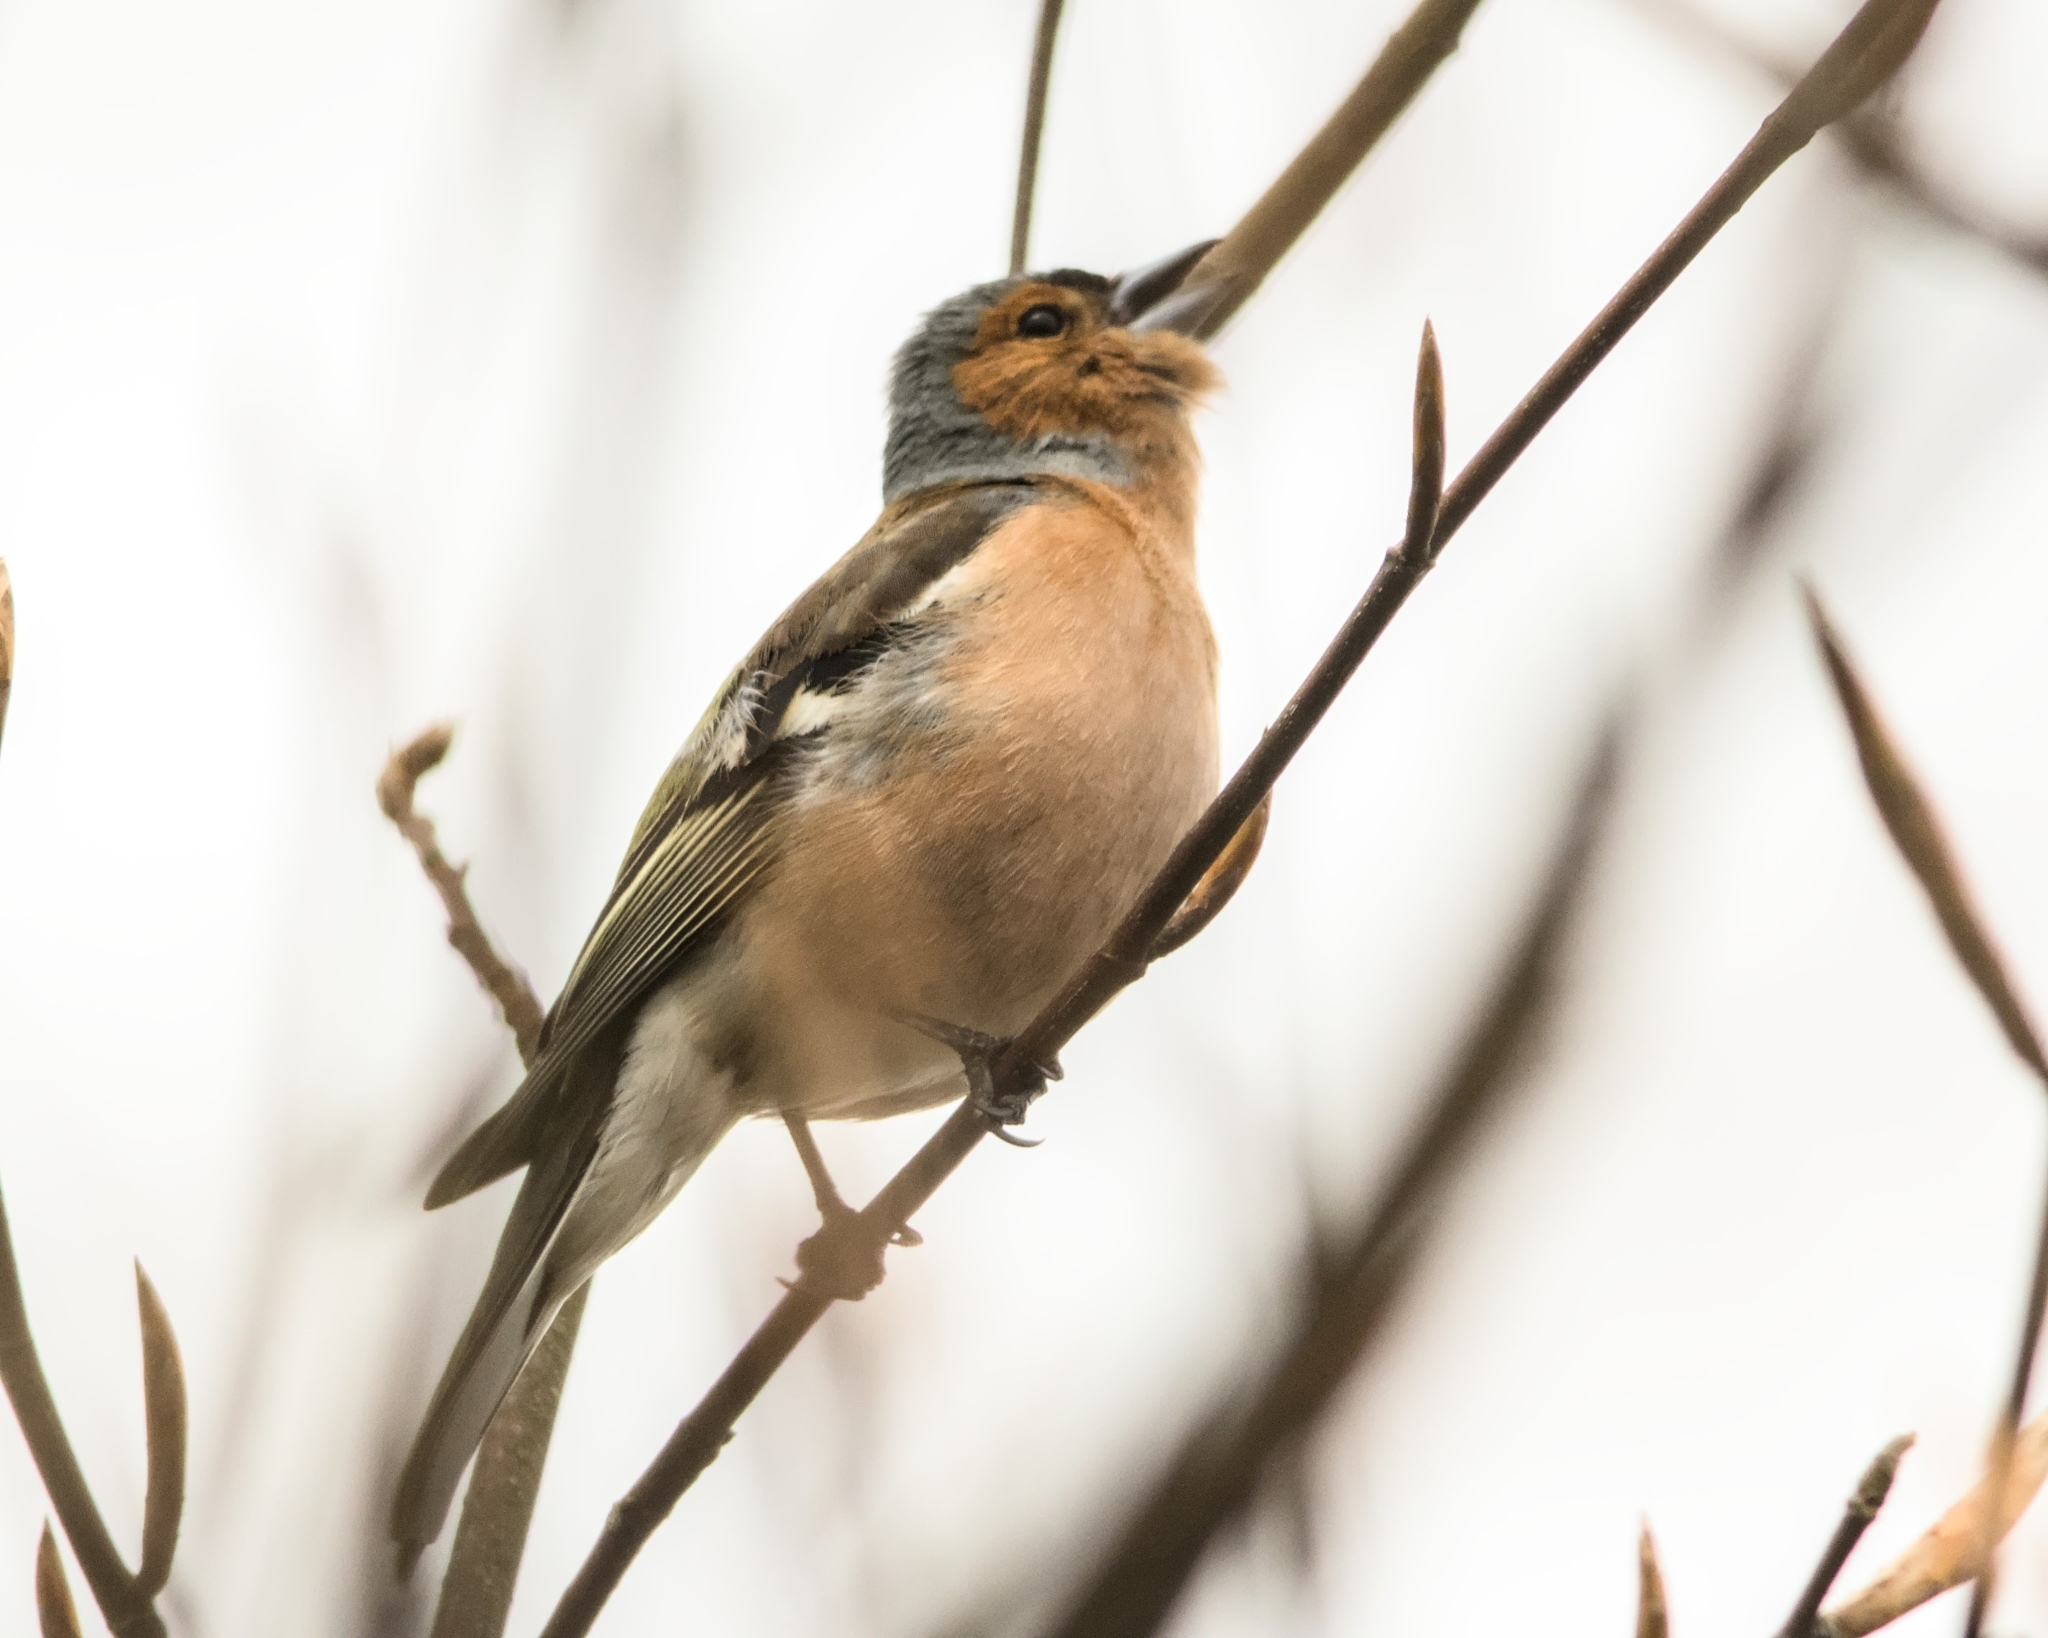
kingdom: Animalia
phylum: Chordata
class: Aves
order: Passeriformes
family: Fringillidae
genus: Fringilla
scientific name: Fringilla coelebs
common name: Common chaffinch
